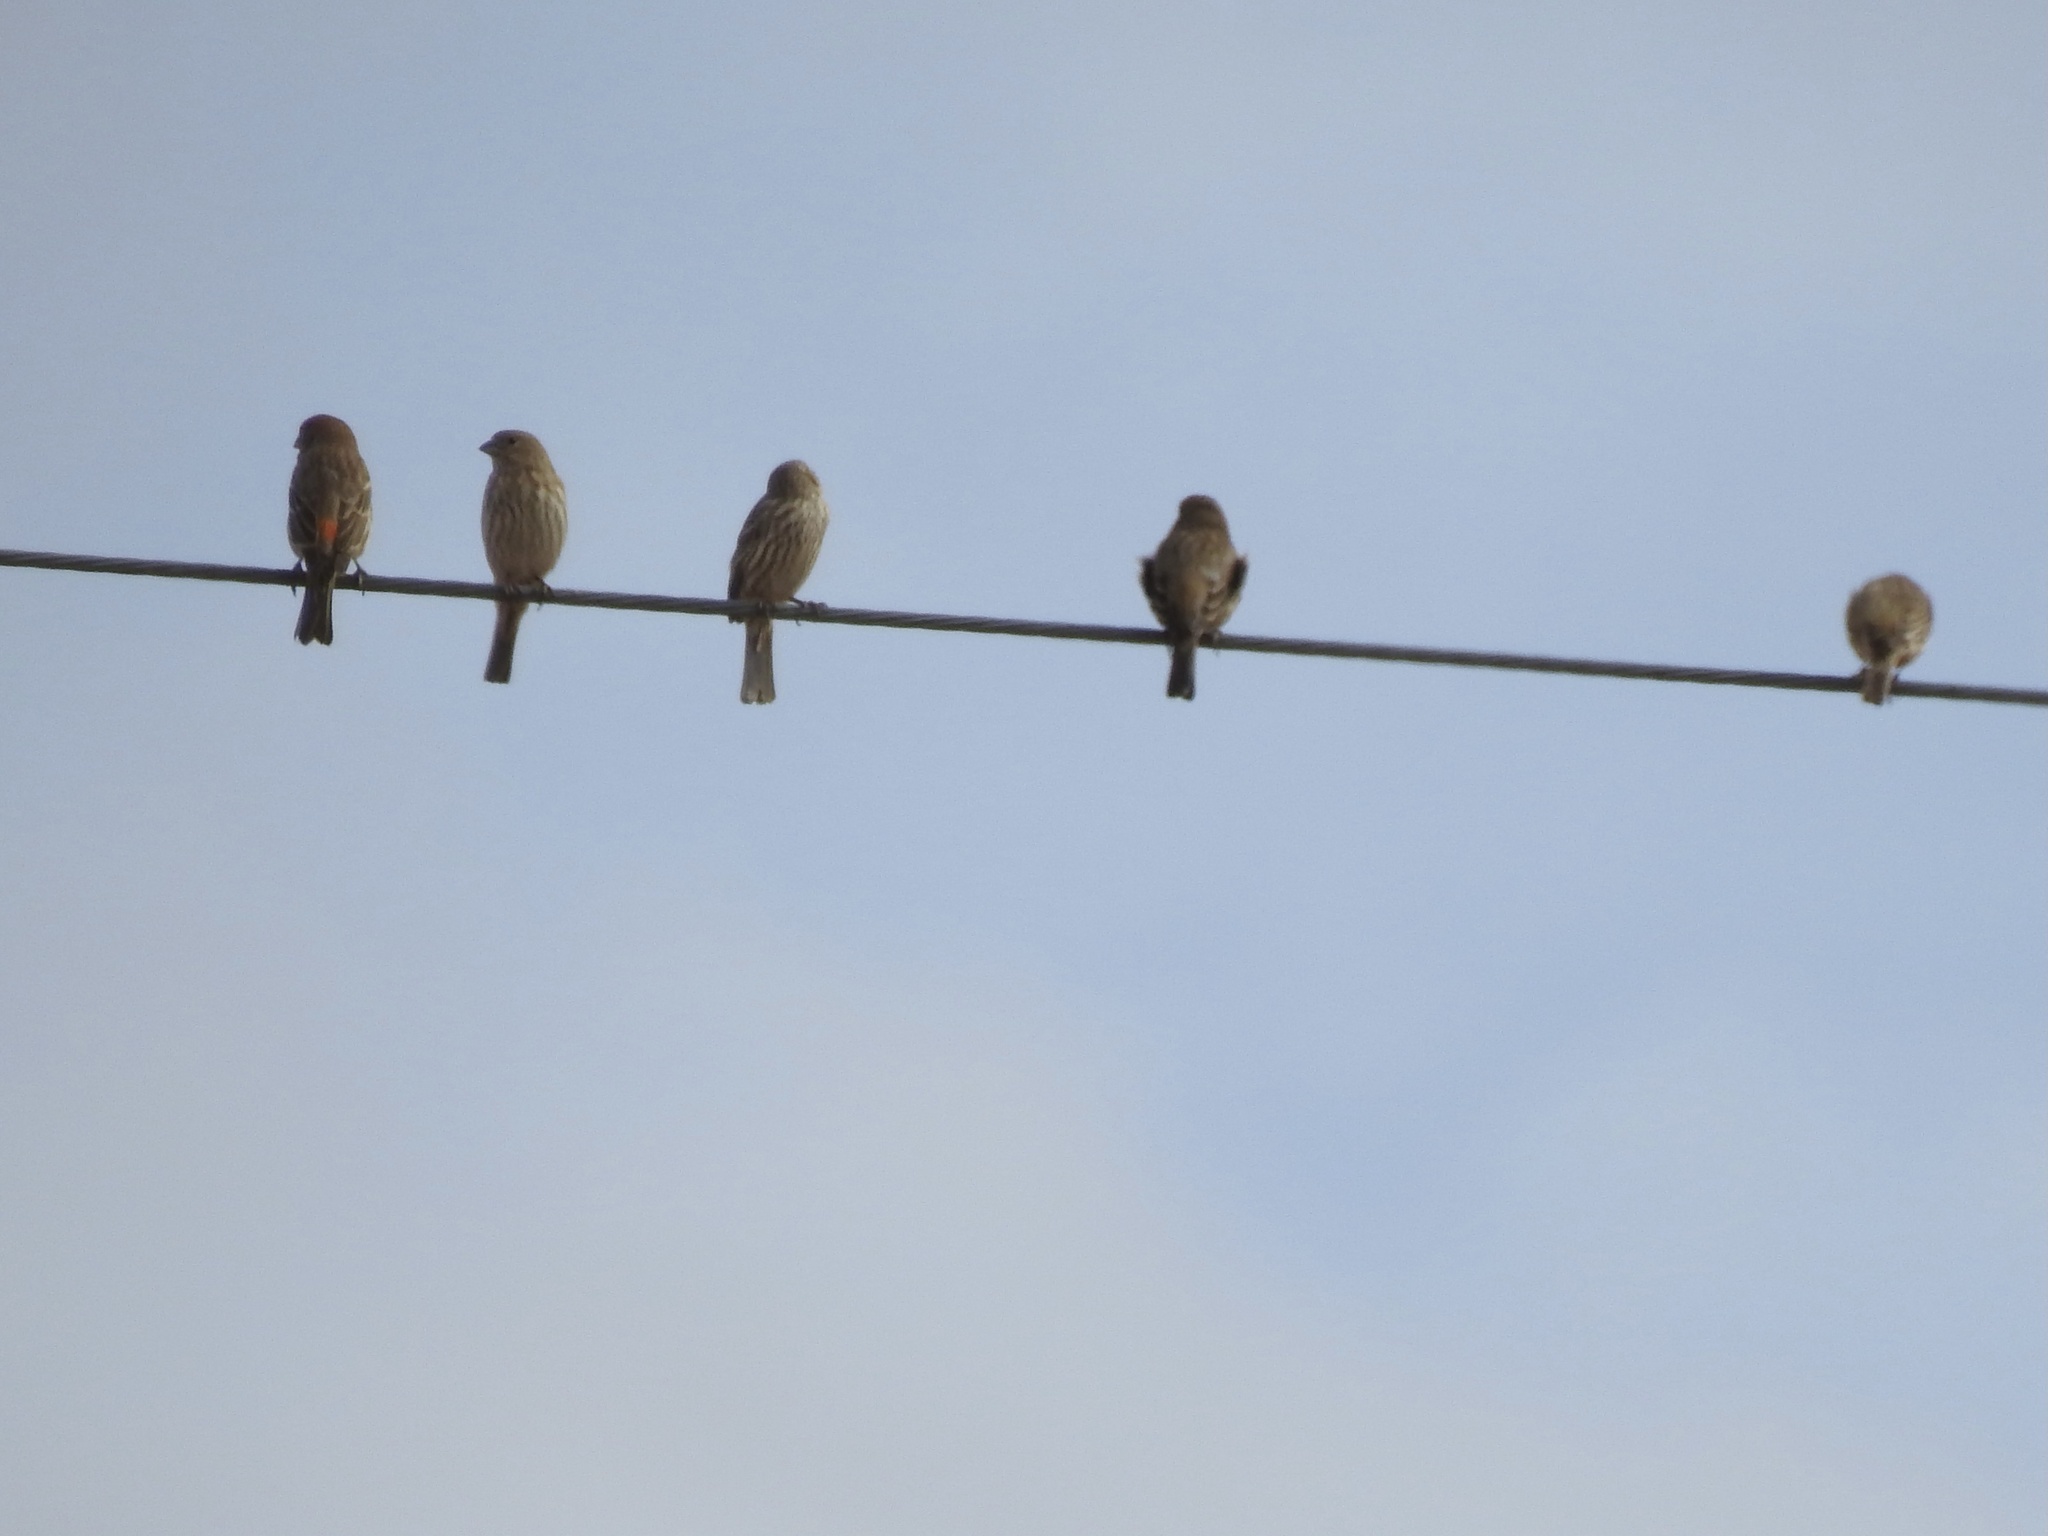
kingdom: Animalia
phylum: Chordata
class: Aves
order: Passeriformes
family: Fringillidae
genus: Haemorhous
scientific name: Haemorhous mexicanus
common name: House finch
